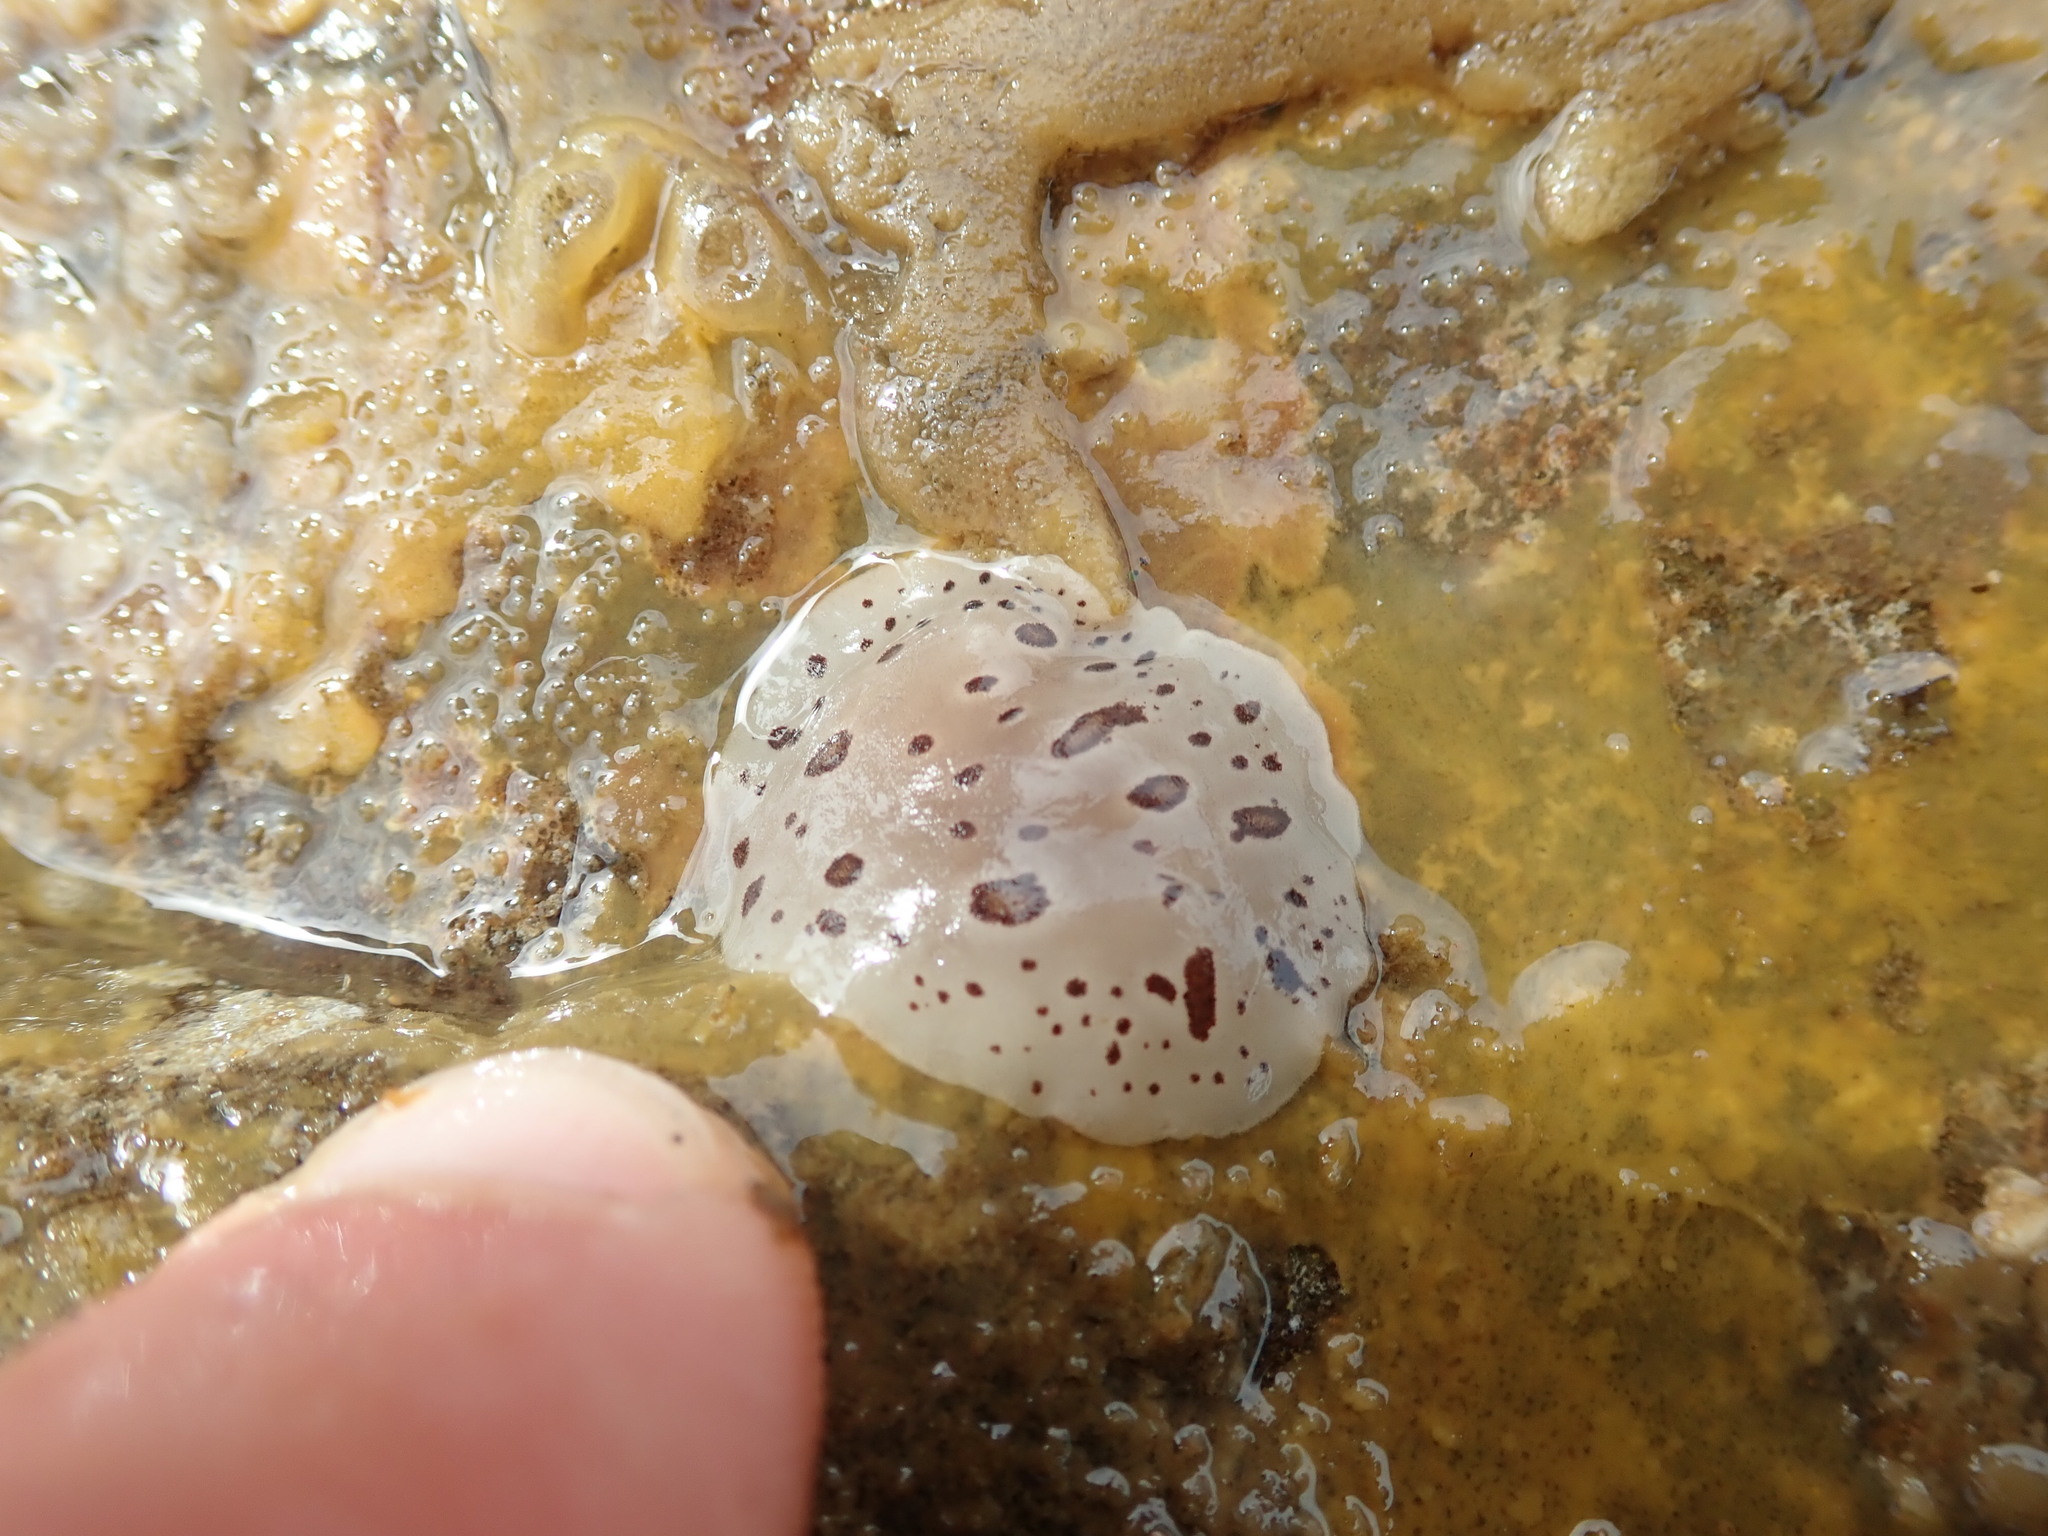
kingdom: Animalia
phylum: Mollusca
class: Gastropoda
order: Nudibranchia
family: Discodorididae
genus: Diaulula
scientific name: Diaulula odonoghuei
